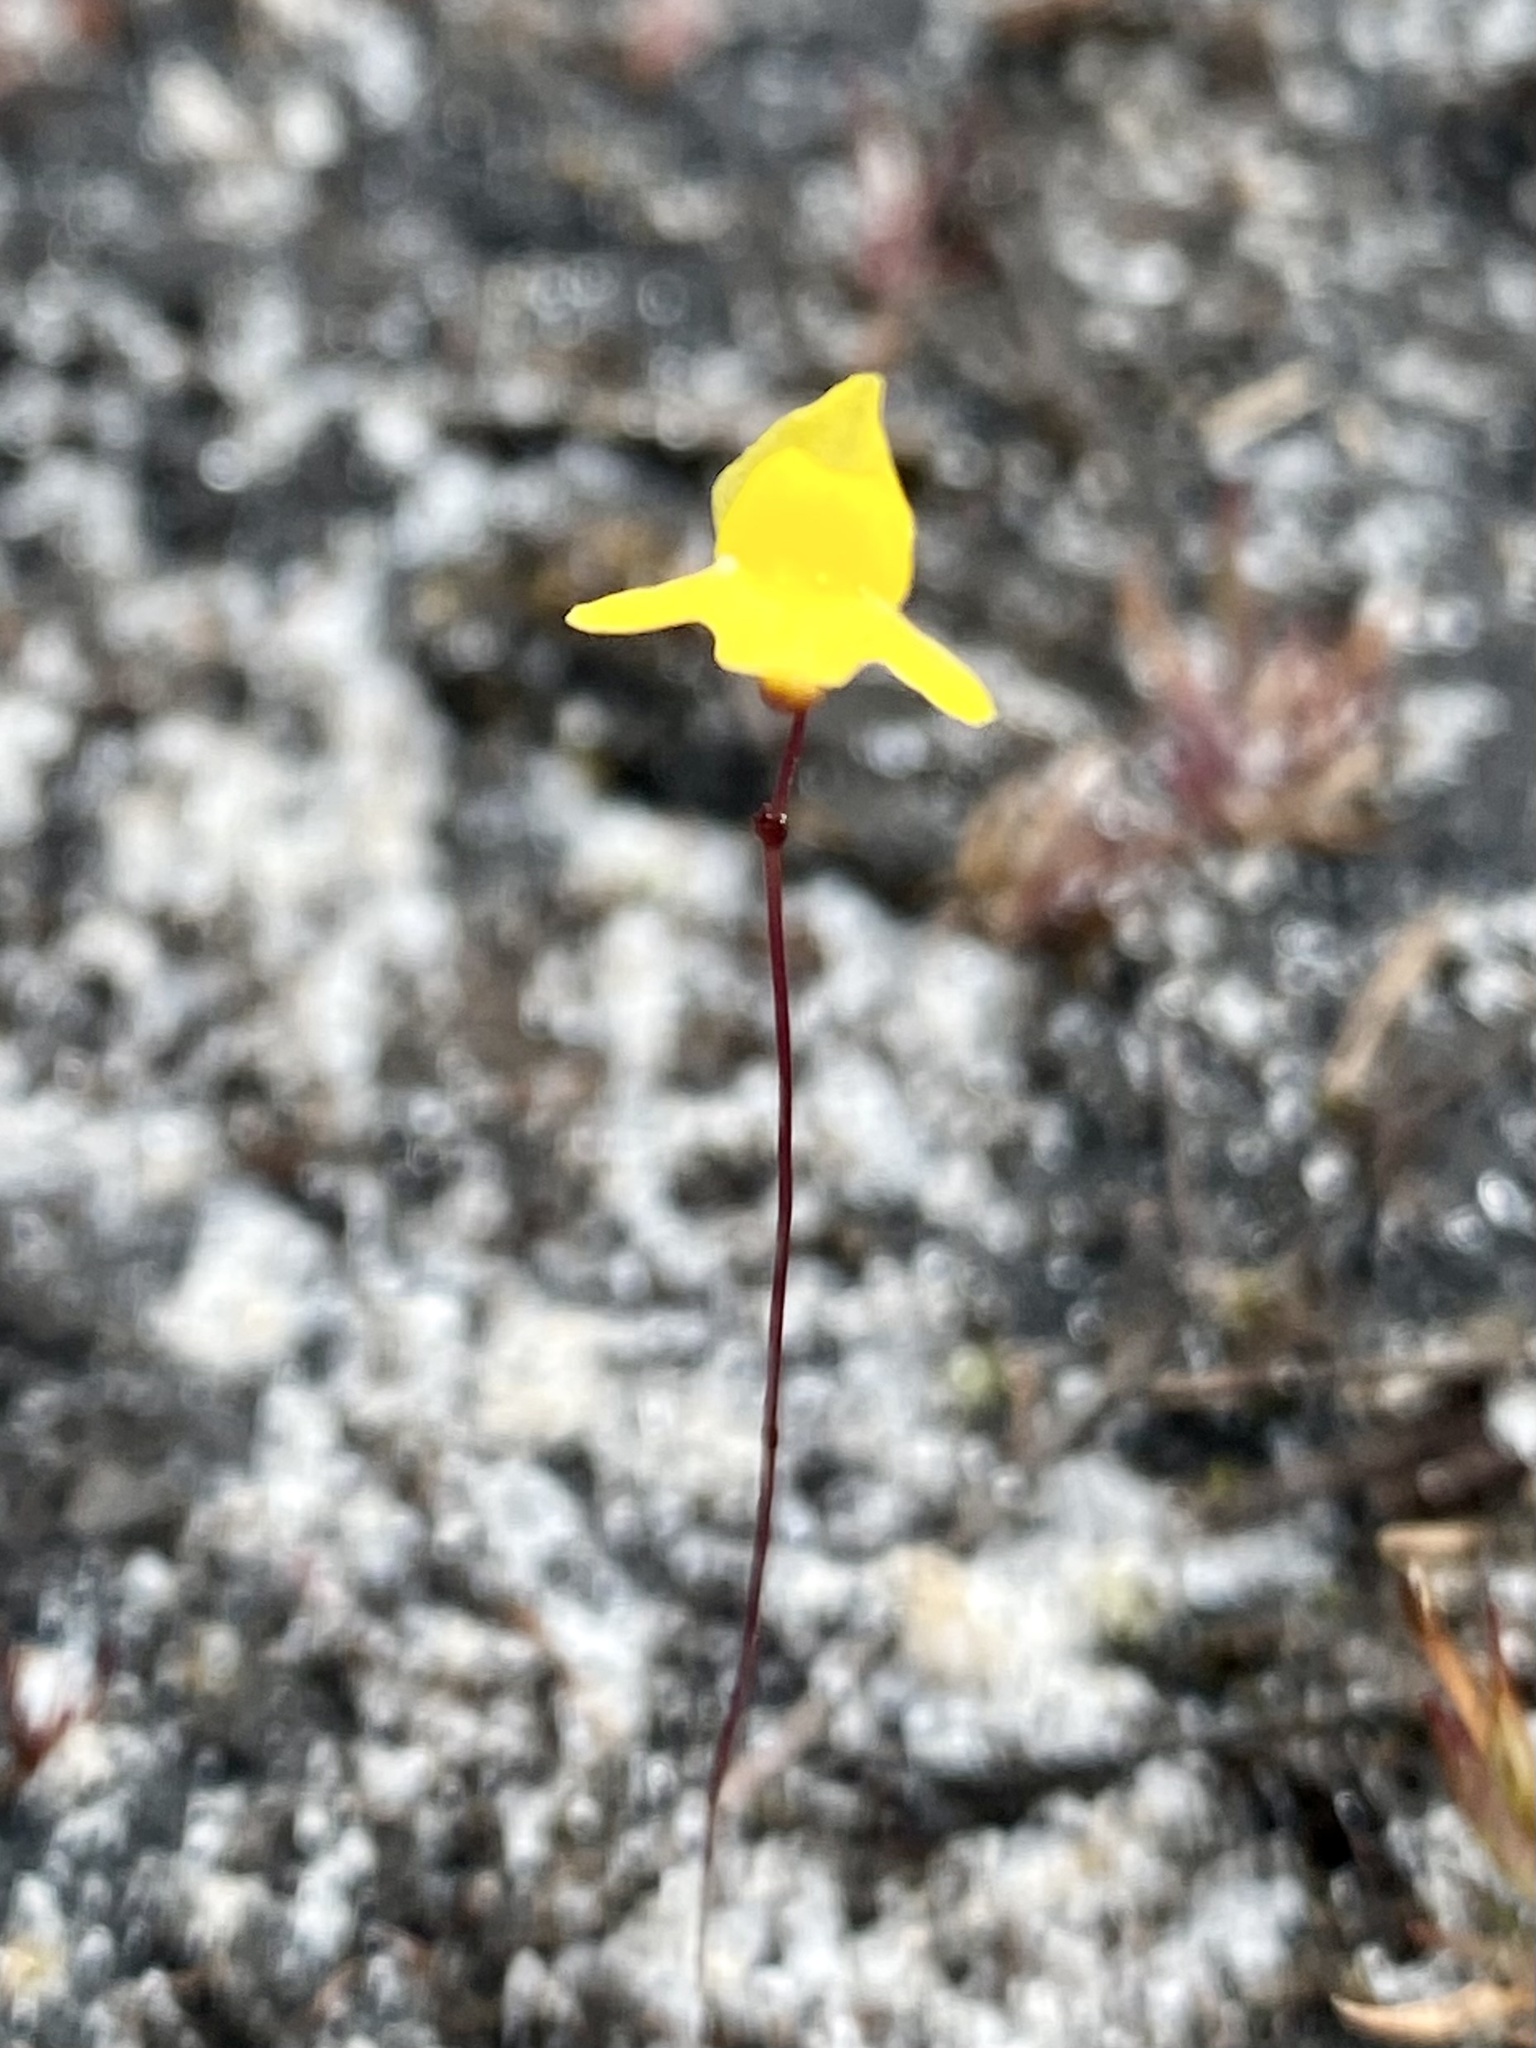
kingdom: Plantae
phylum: Tracheophyta
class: Magnoliopsida
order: Lamiales
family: Lentibulariaceae
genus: Utricularia
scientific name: Utricularia subulata
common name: Tiny bladderwort
